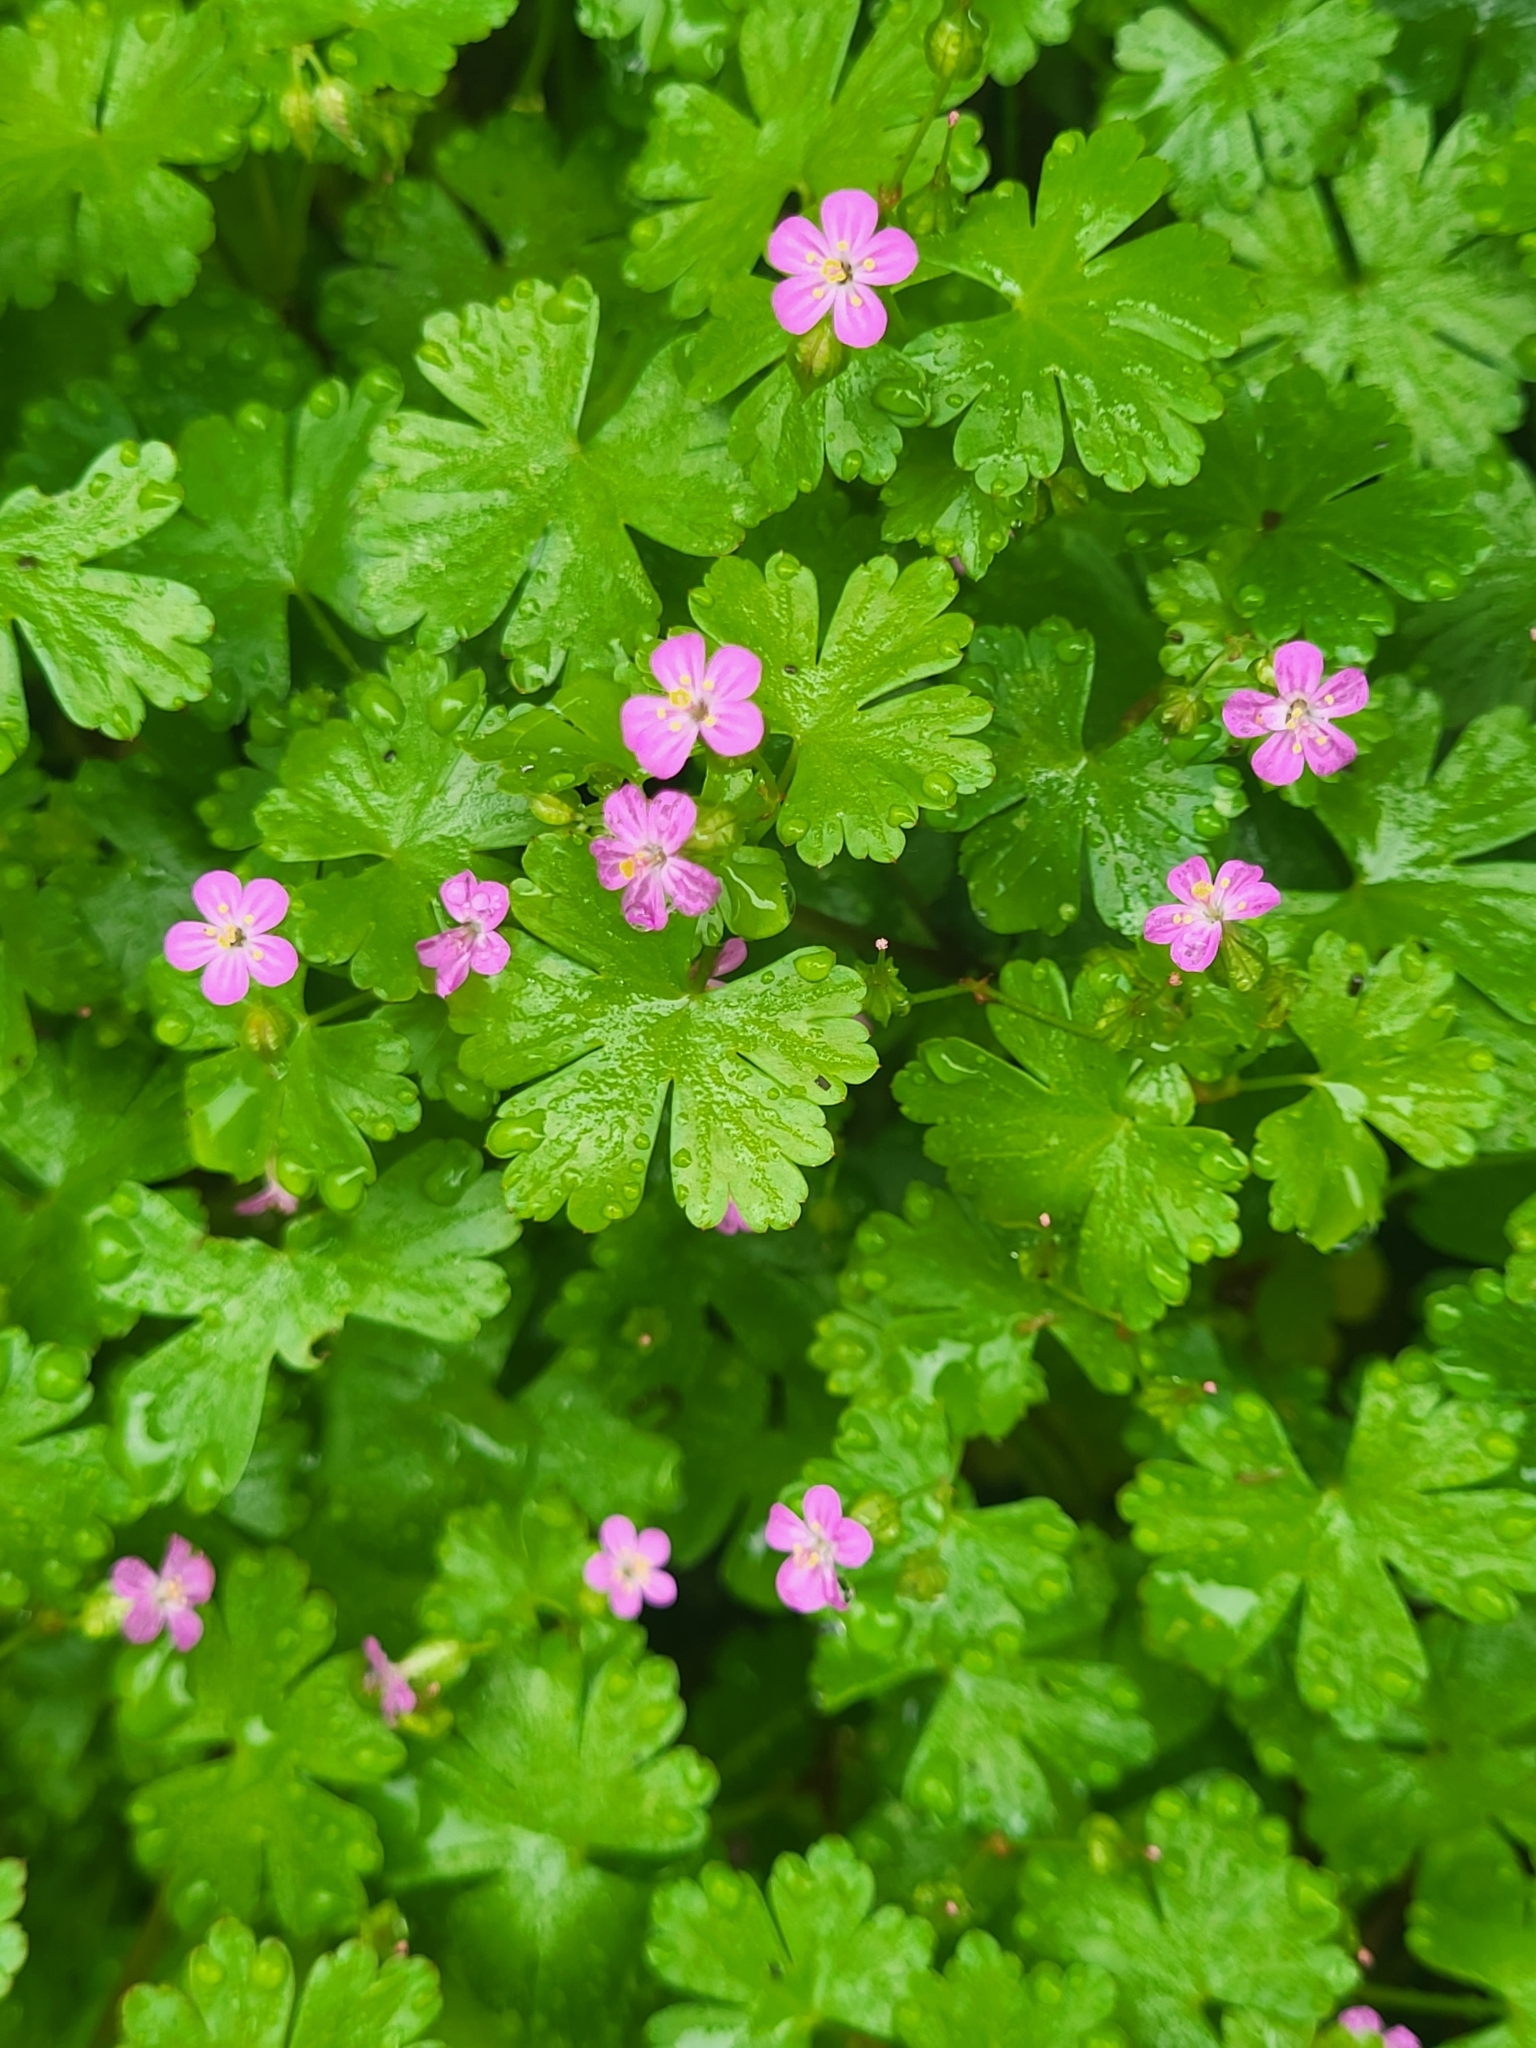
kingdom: Plantae
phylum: Tracheophyta
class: Magnoliopsida
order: Geraniales
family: Geraniaceae
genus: Geranium
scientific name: Geranium lucidum
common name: Shining crane's-bill
